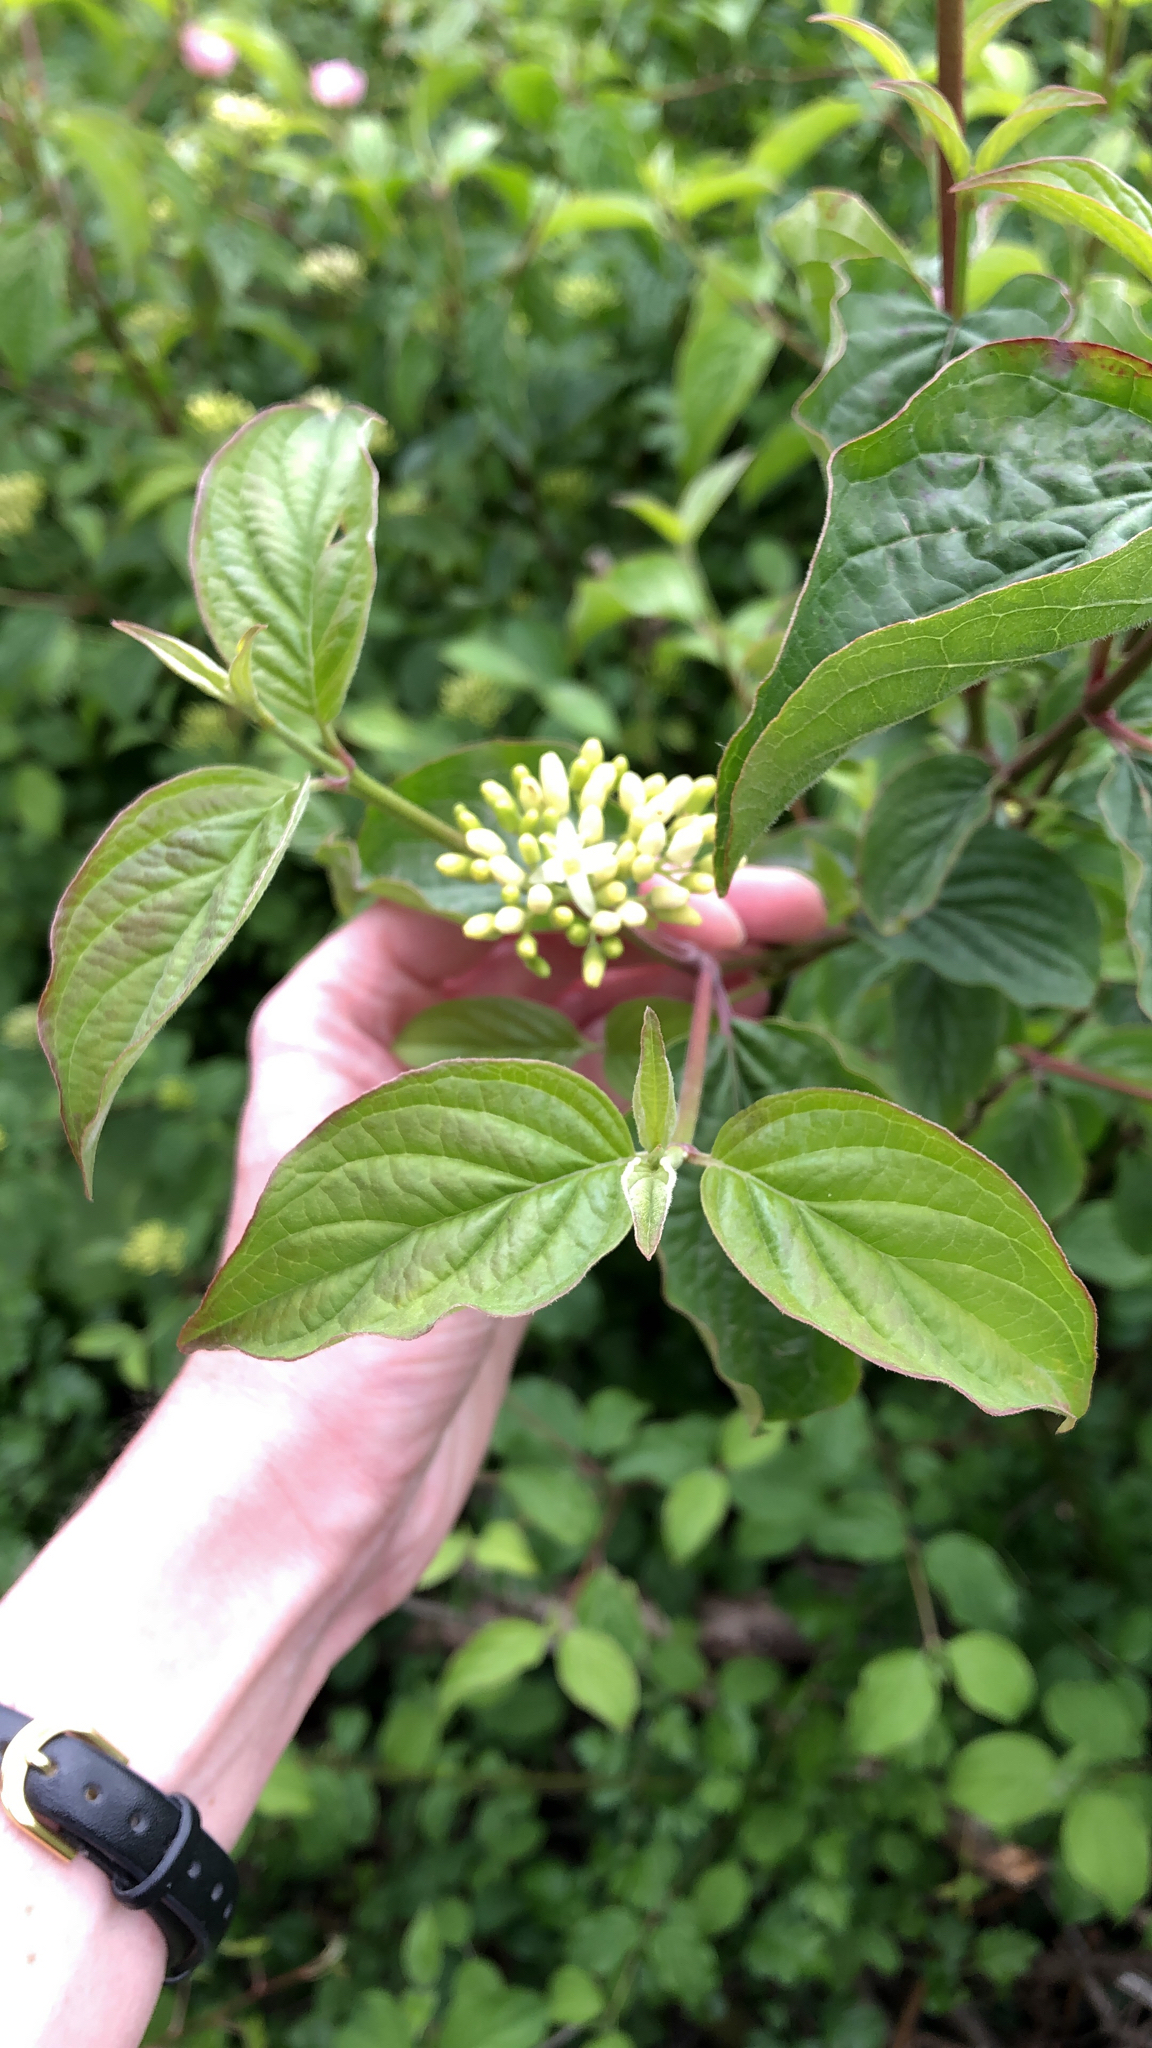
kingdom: Plantae
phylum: Tracheophyta
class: Magnoliopsida
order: Cornales
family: Cornaceae
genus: Cornus
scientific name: Cornus sanguinea
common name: Dogwood
